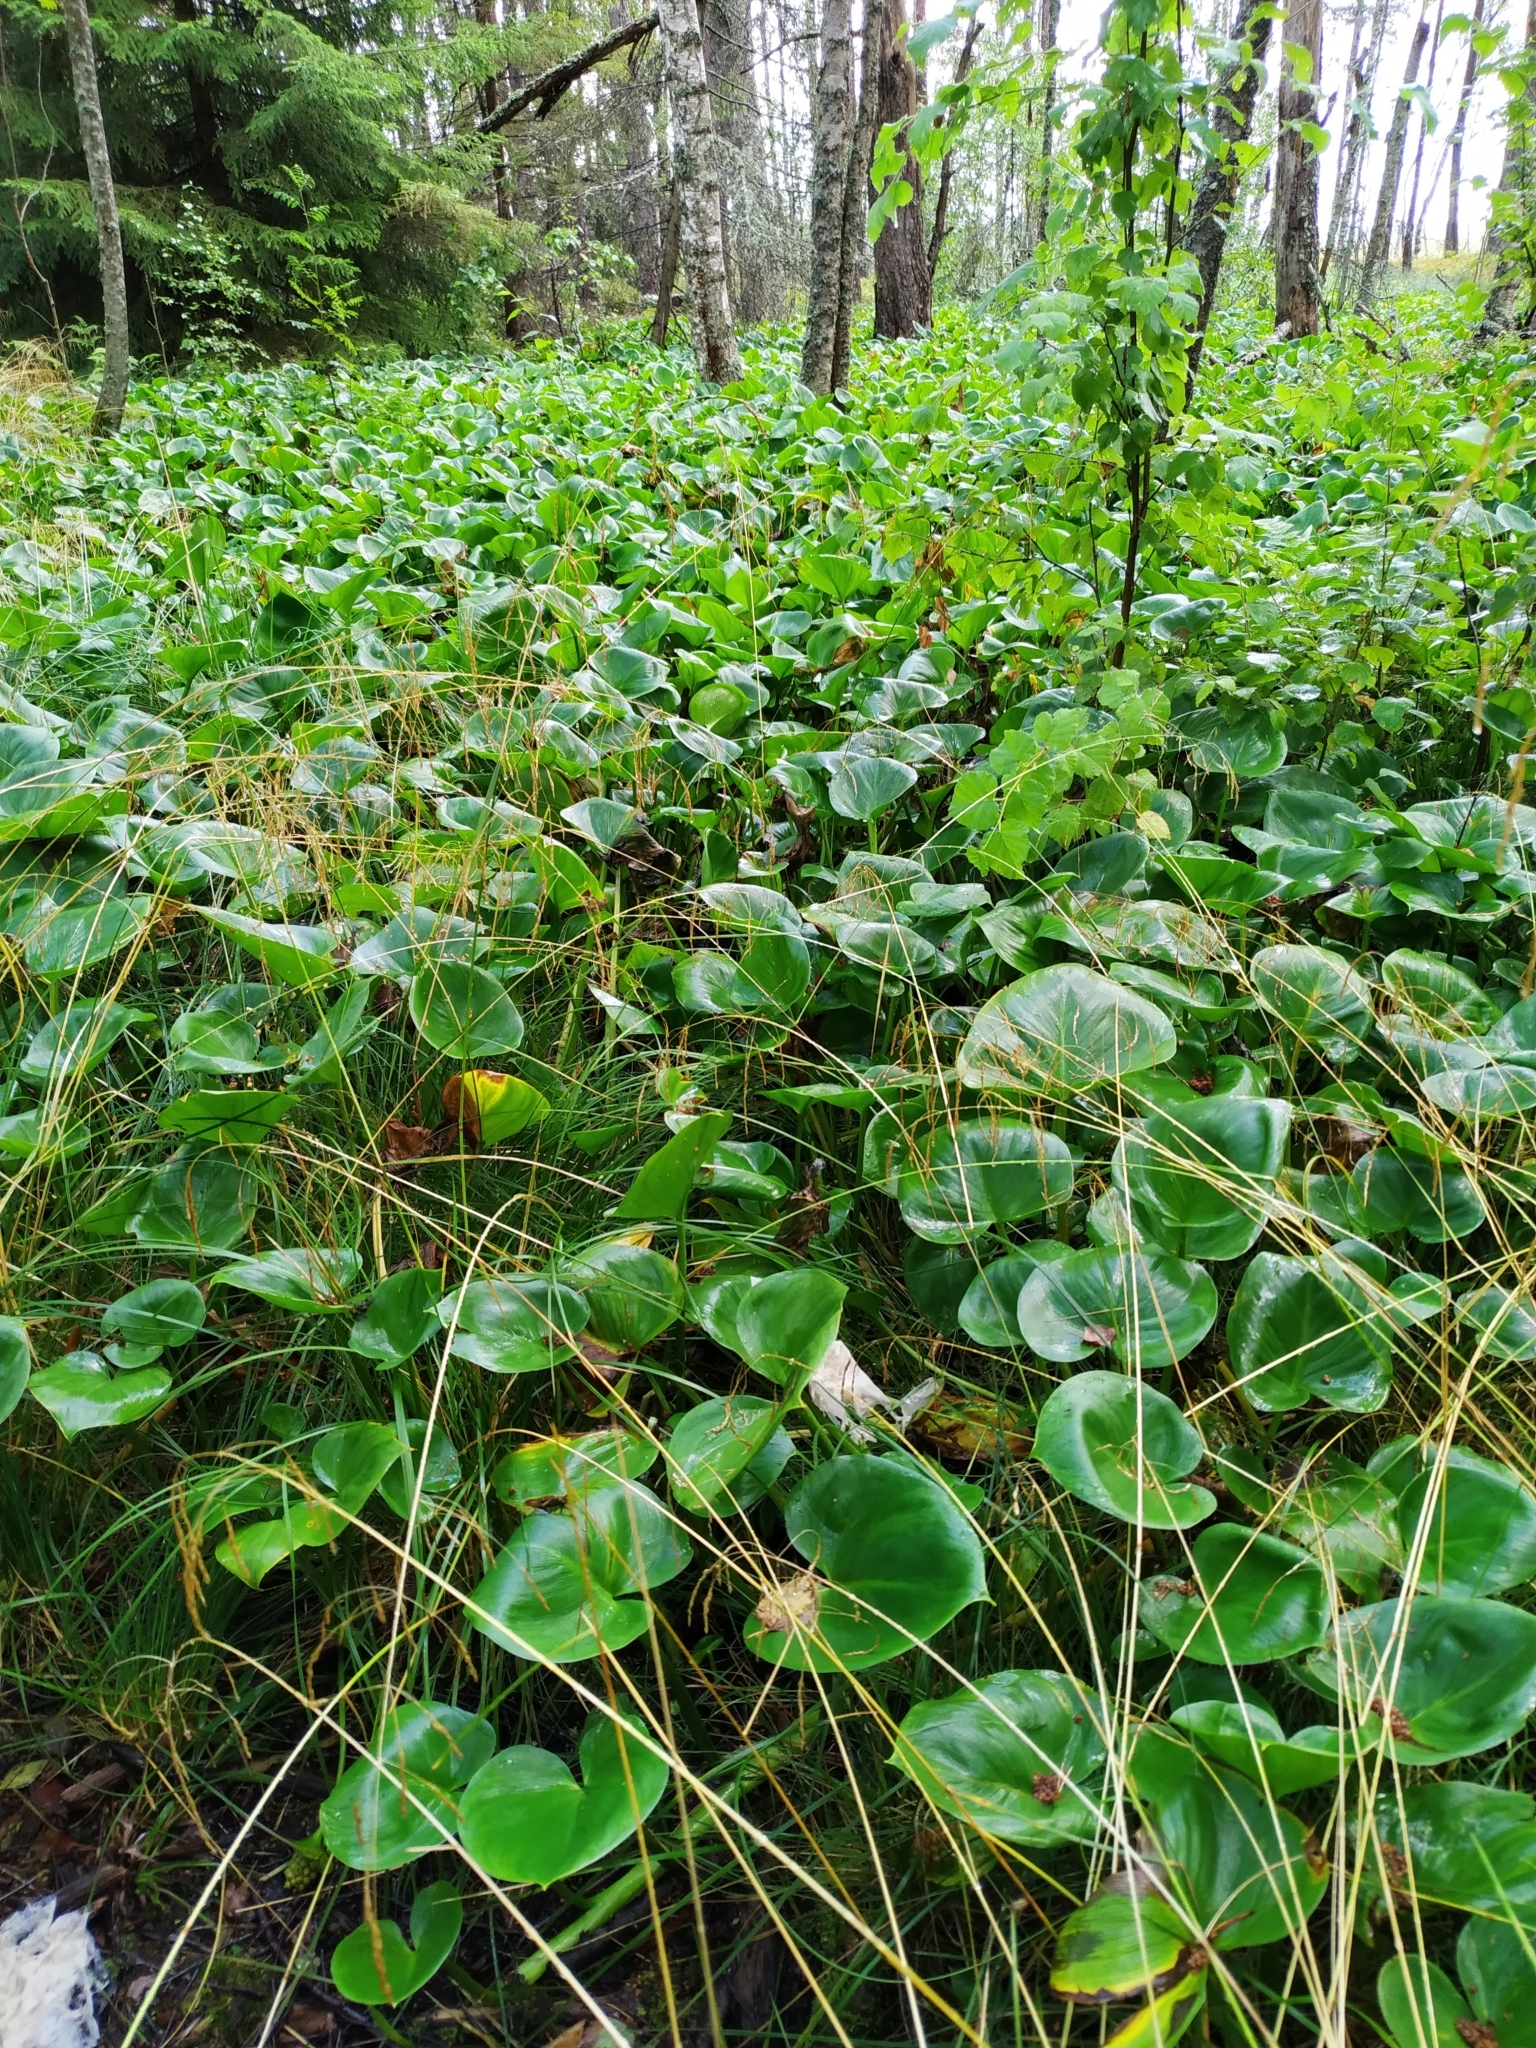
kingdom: Plantae
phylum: Tracheophyta
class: Liliopsida
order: Alismatales
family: Araceae
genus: Calla
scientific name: Calla palustris
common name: Bog arum
